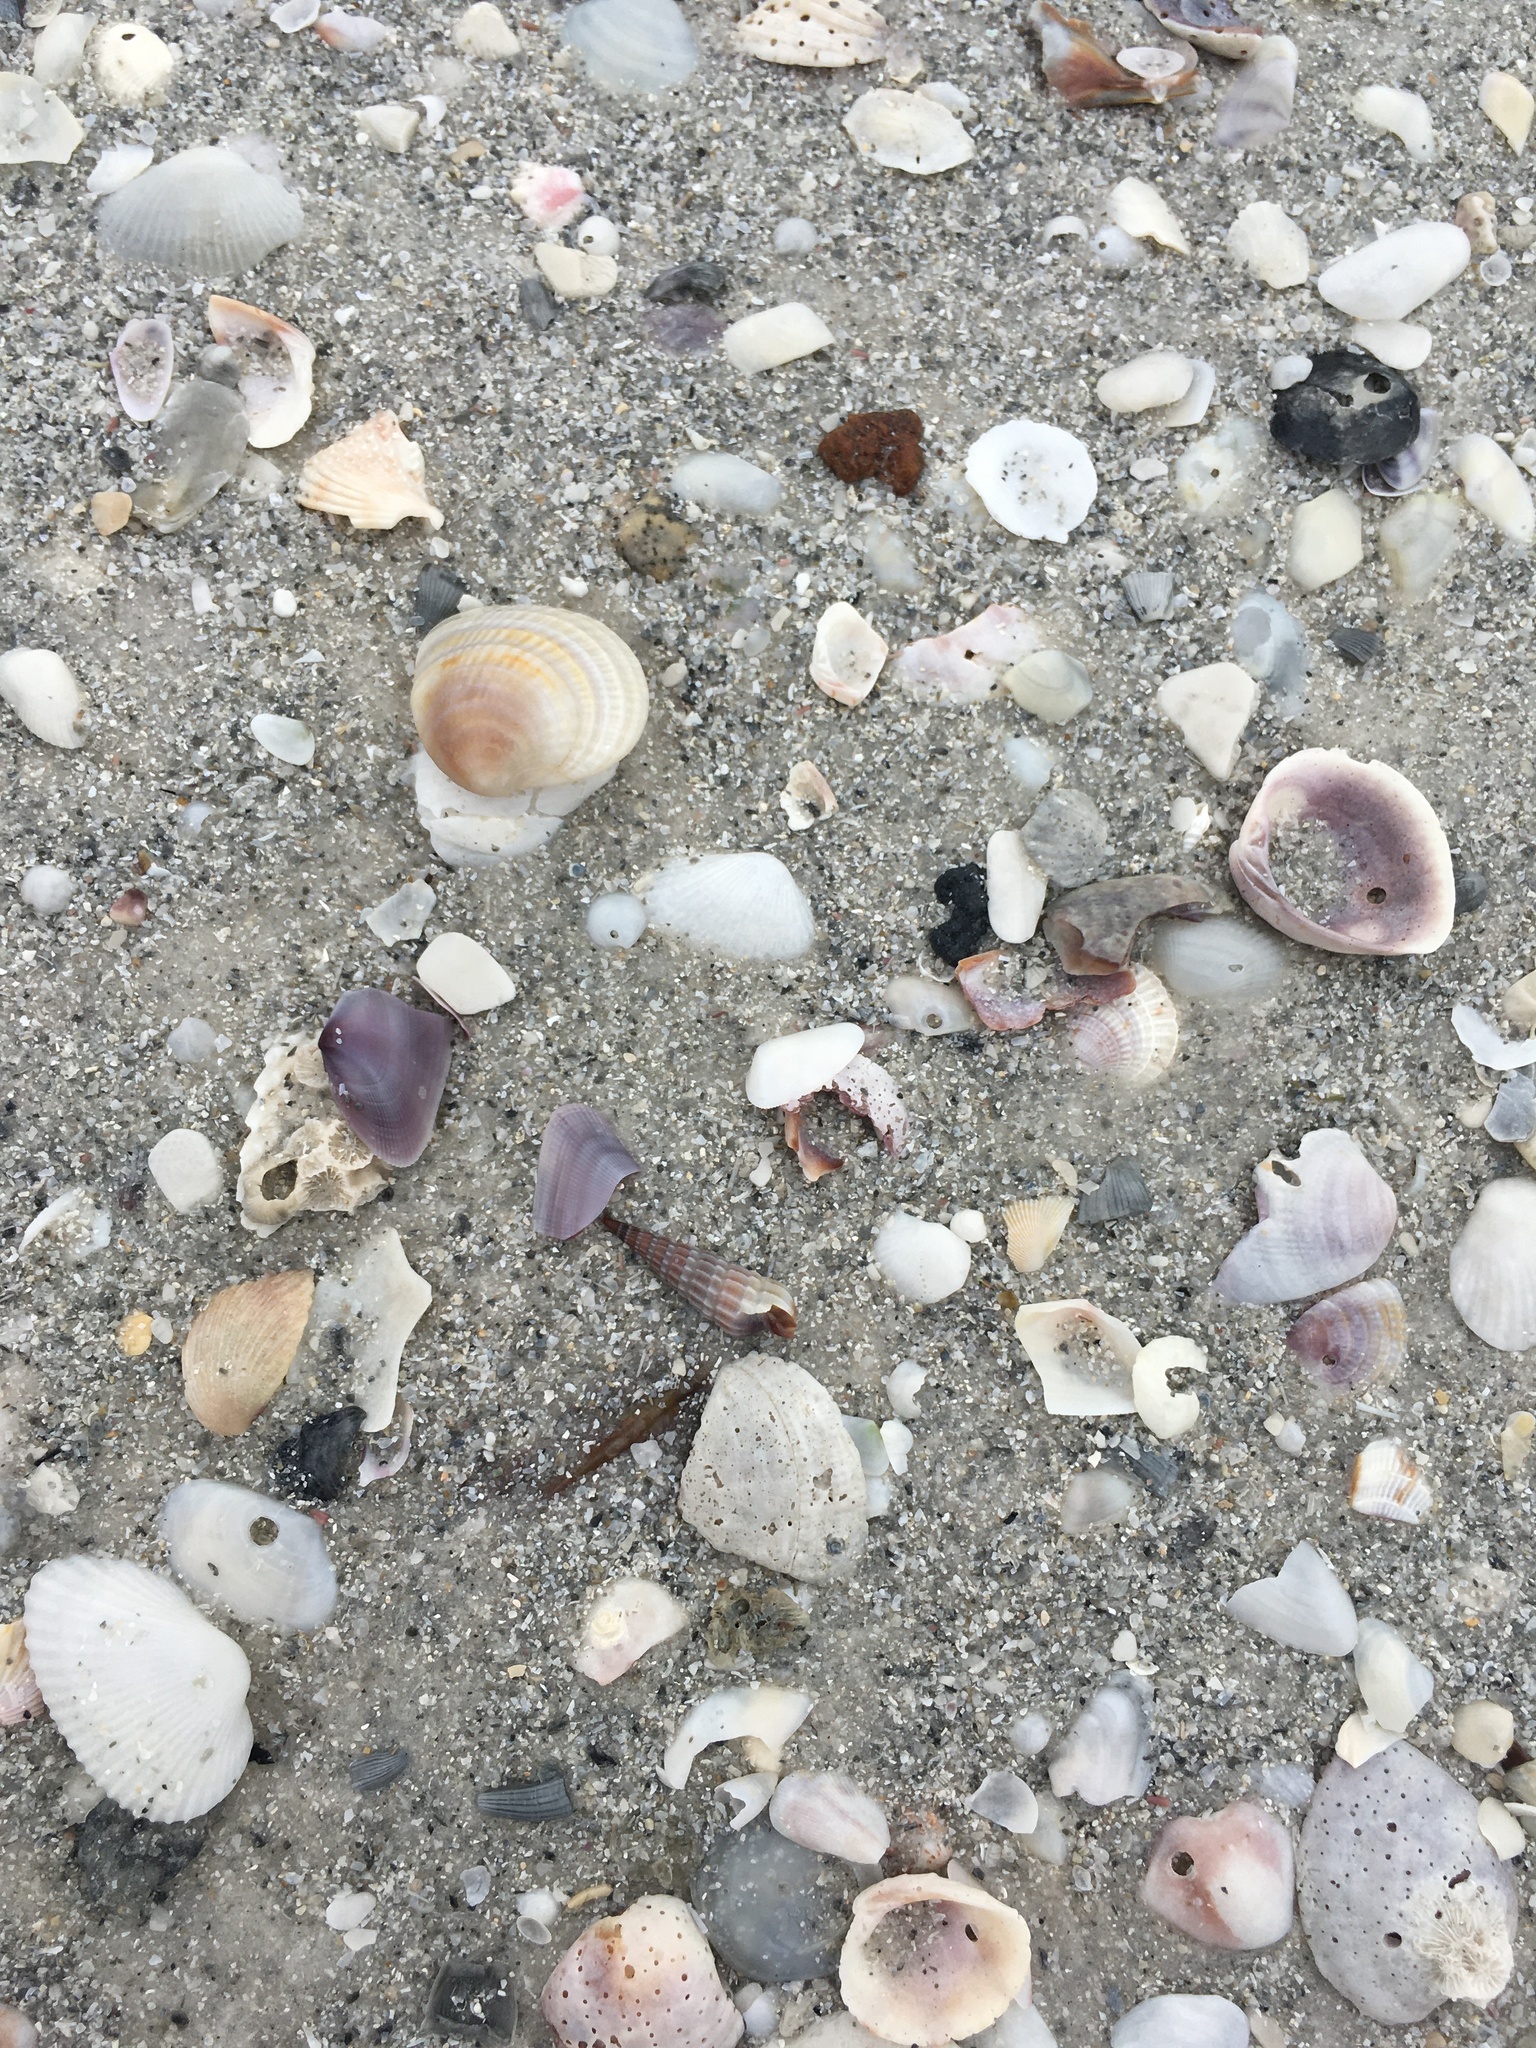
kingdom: Animalia
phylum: Mollusca
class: Gastropoda
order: Neogastropoda
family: Terebridae
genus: Neoterebra
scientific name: Neoterebra dislocata
